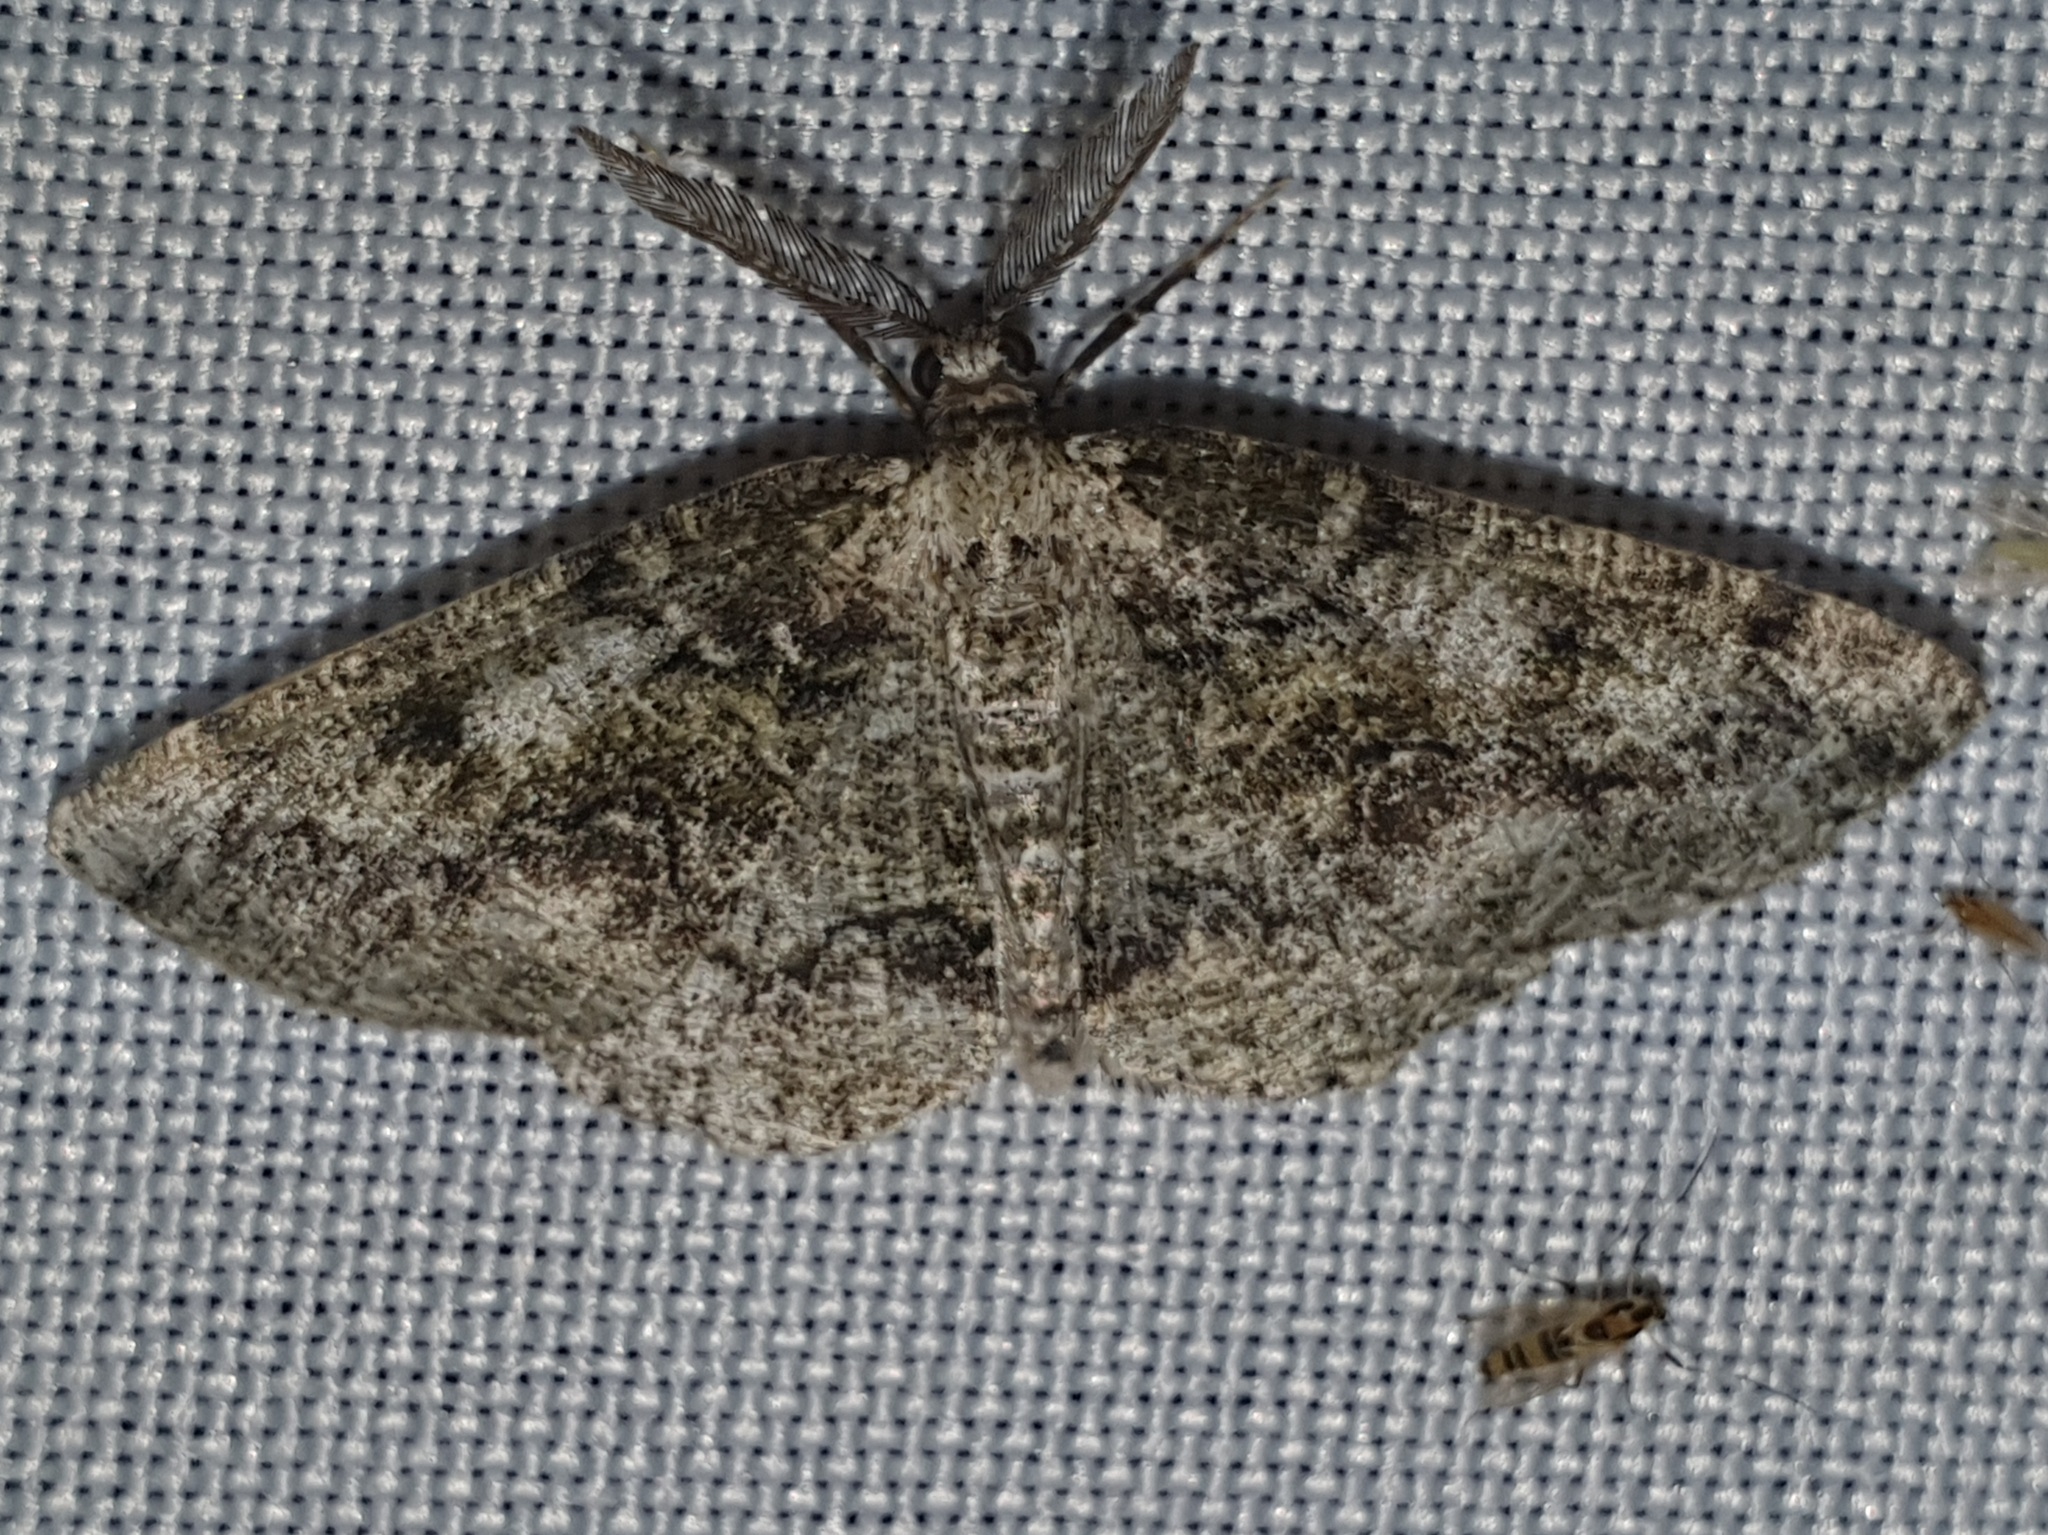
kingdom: Animalia
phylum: Arthropoda
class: Insecta
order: Lepidoptera
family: Geometridae
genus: Cleorodes
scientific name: Cleorodes lichenaria
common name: Brussels lace
